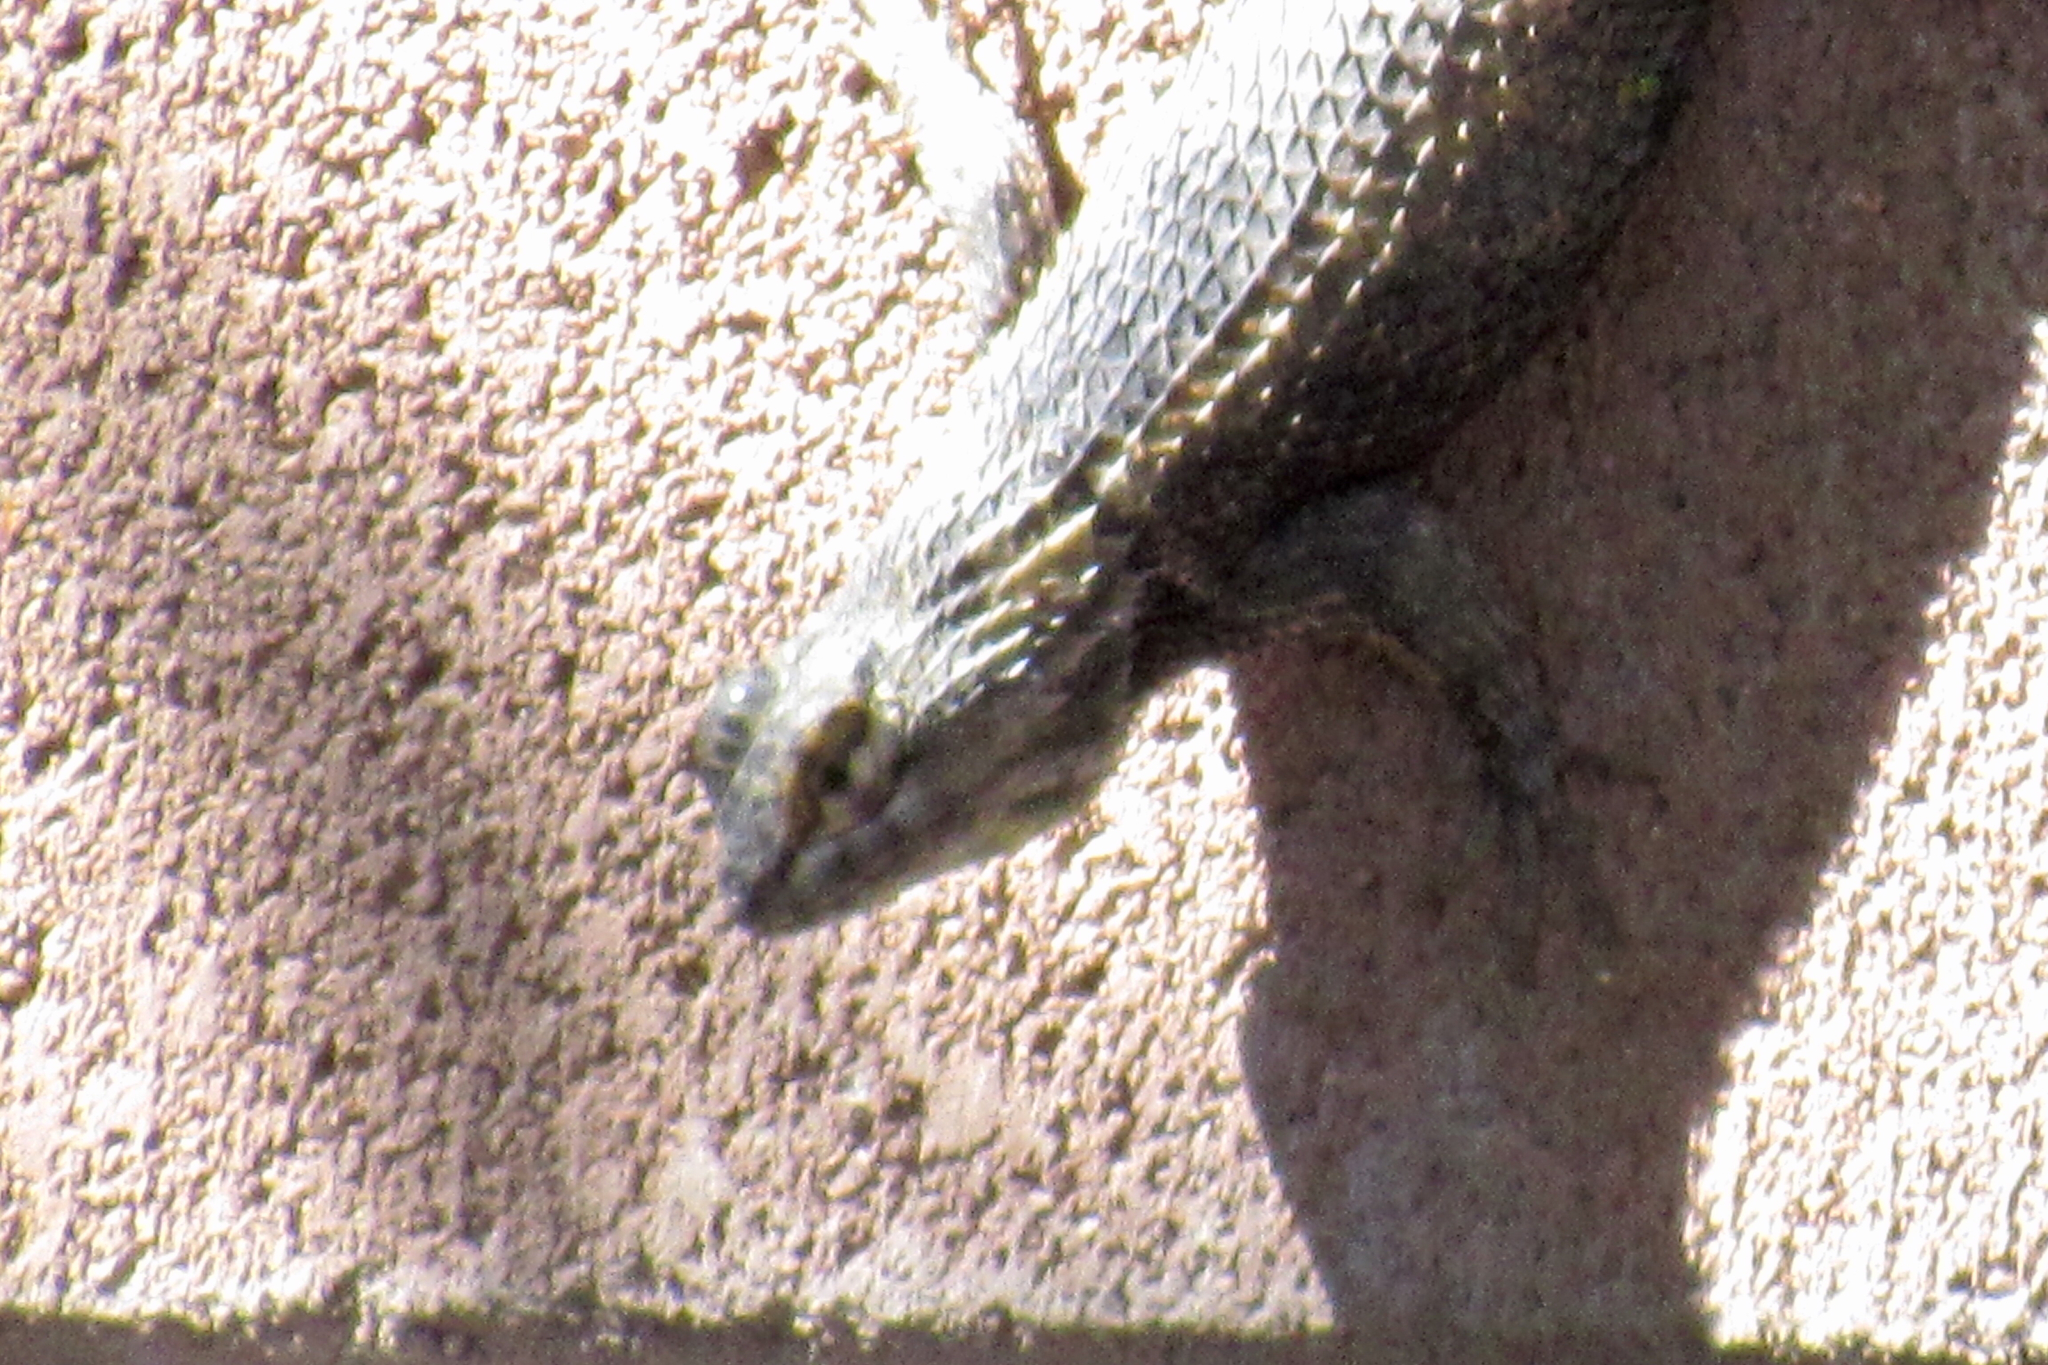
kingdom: Animalia
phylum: Chordata
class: Squamata
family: Phrynosomatidae
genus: Sceloporus
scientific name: Sceloporus magister
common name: Desert spiny lizard
